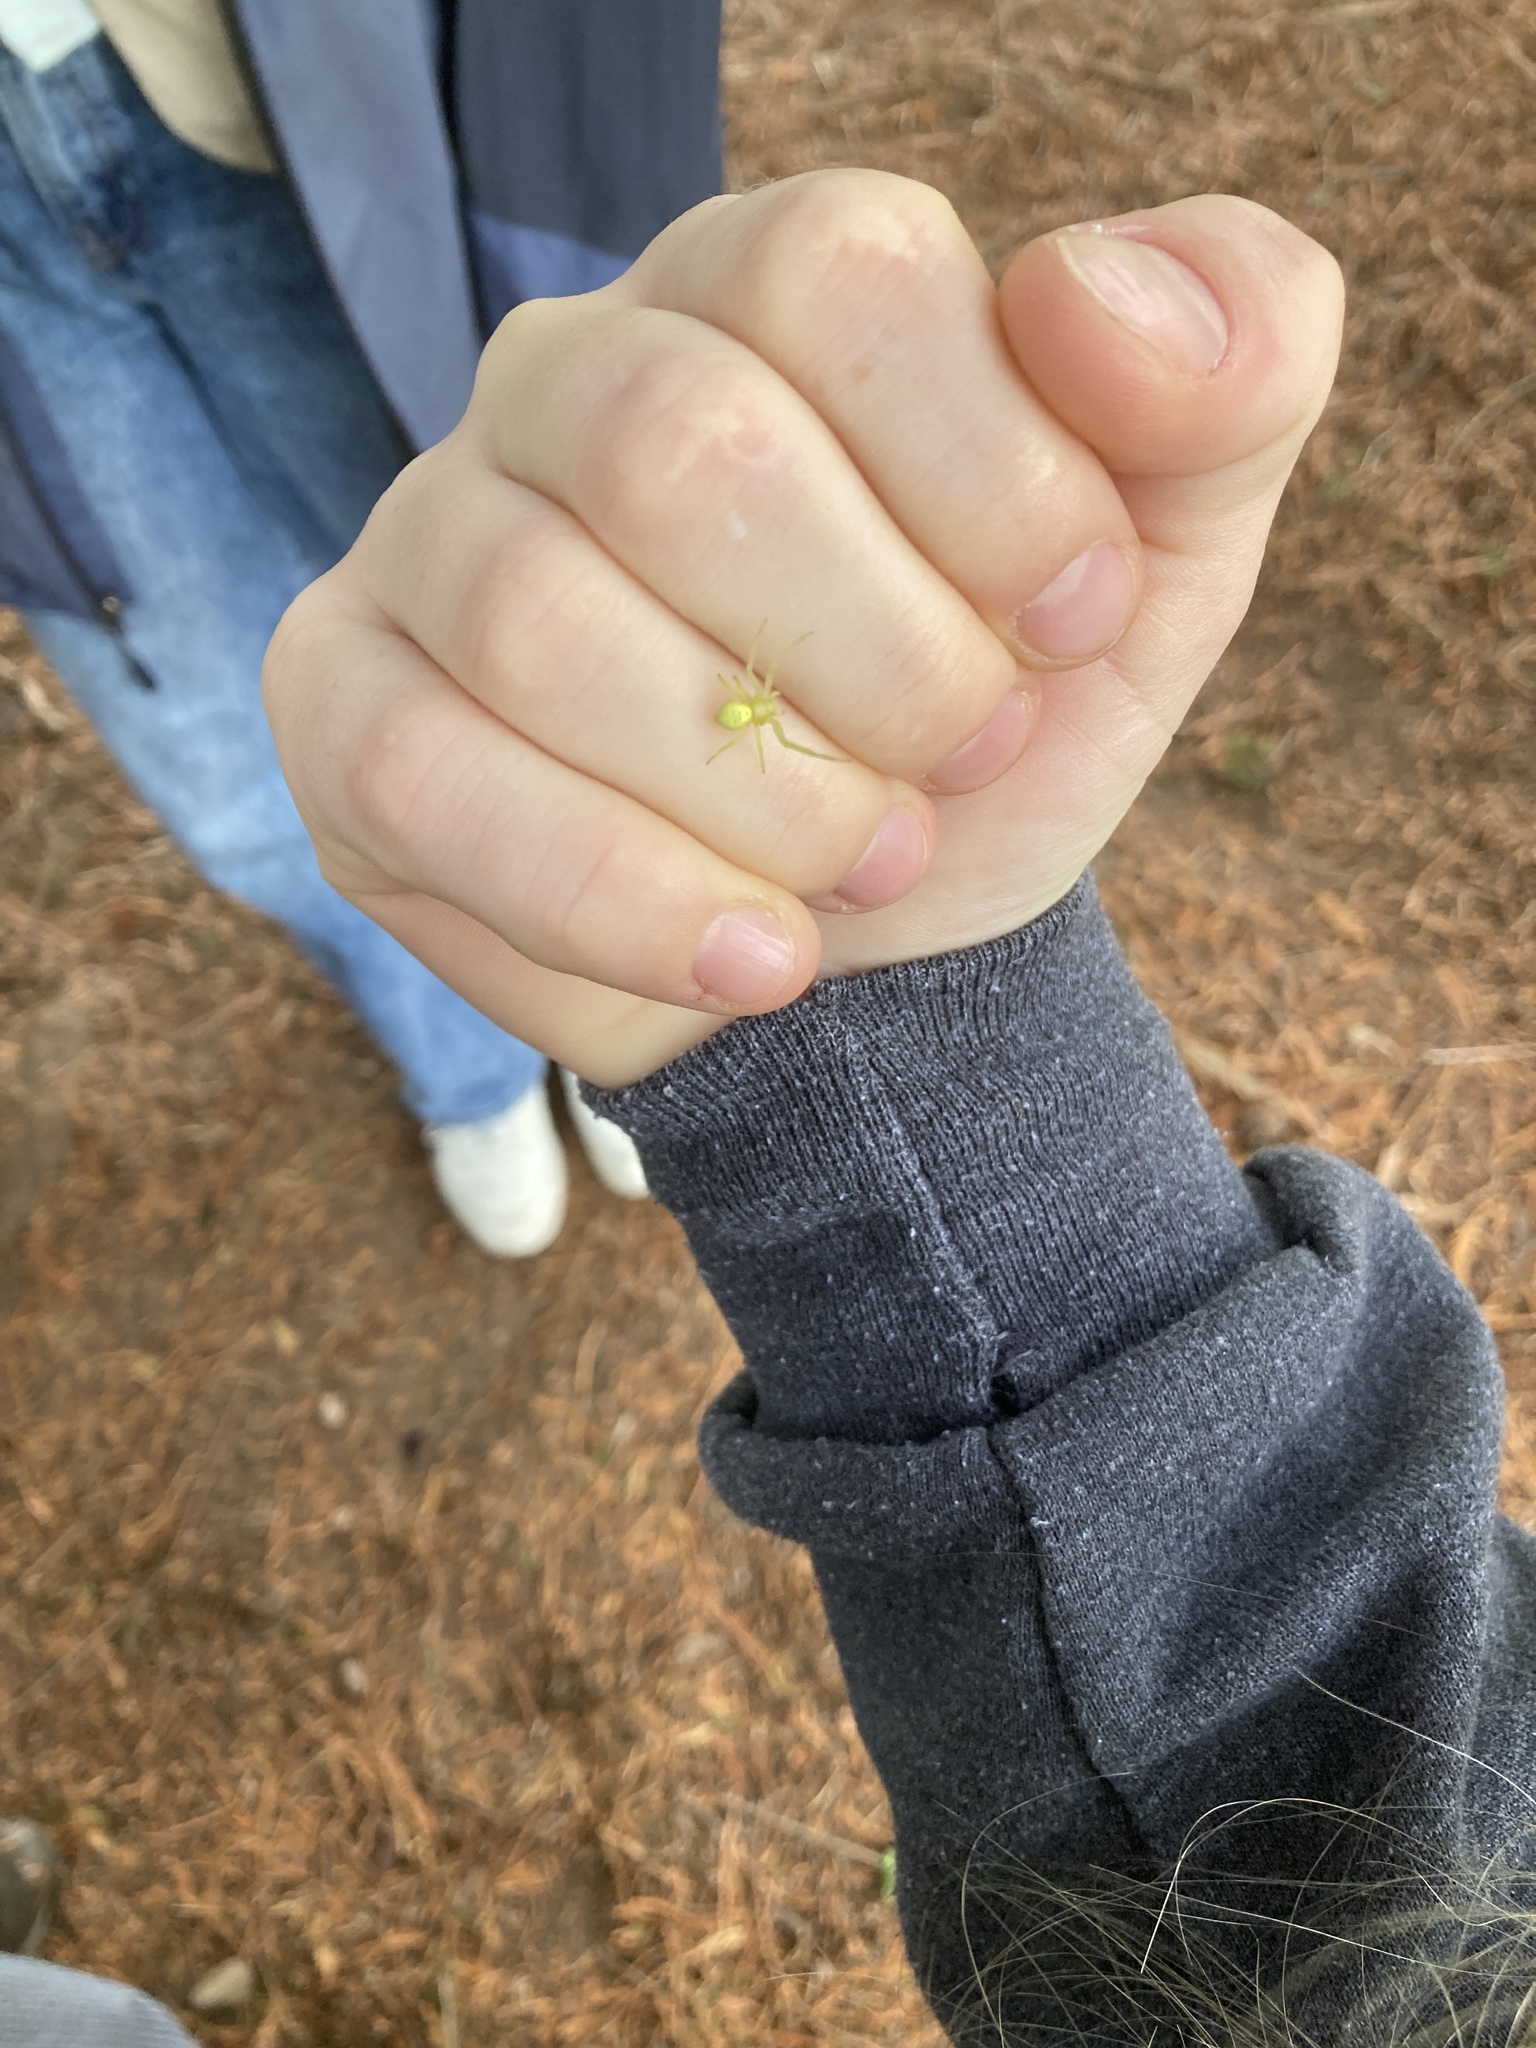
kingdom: Animalia
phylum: Arthropoda
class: Arachnida
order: Araneae
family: Thomisidae
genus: Misumena
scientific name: Misumena vatia
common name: Goldenrod crab spider
